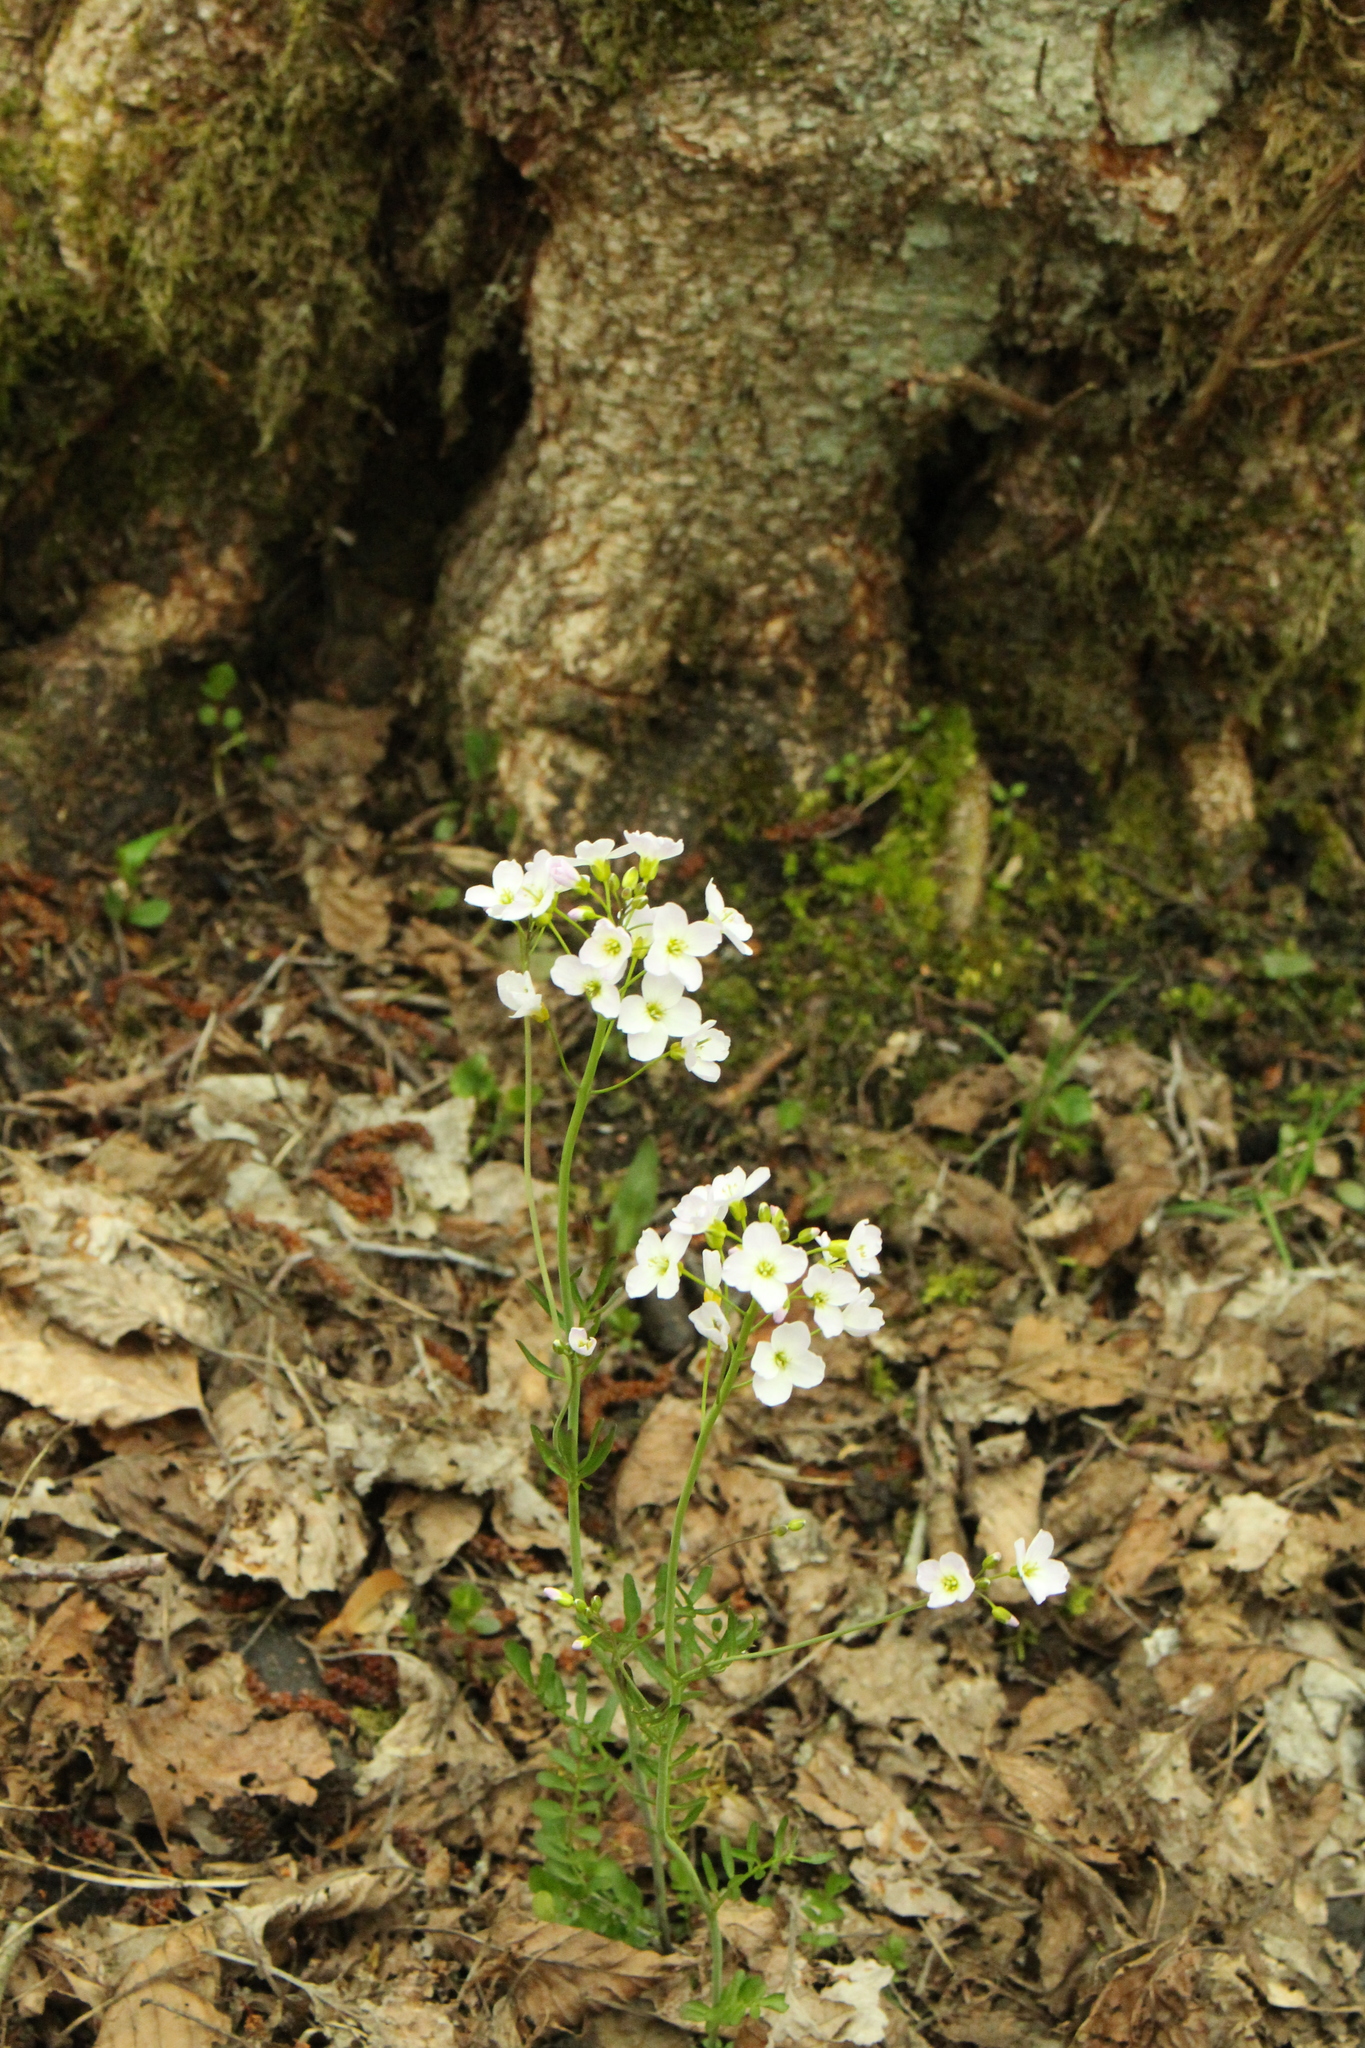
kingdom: Plantae
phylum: Tracheophyta
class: Magnoliopsida
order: Brassicales
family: Brassicaceae
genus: Cardamine
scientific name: Cardamine pratensis
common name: Cuckoo flower
